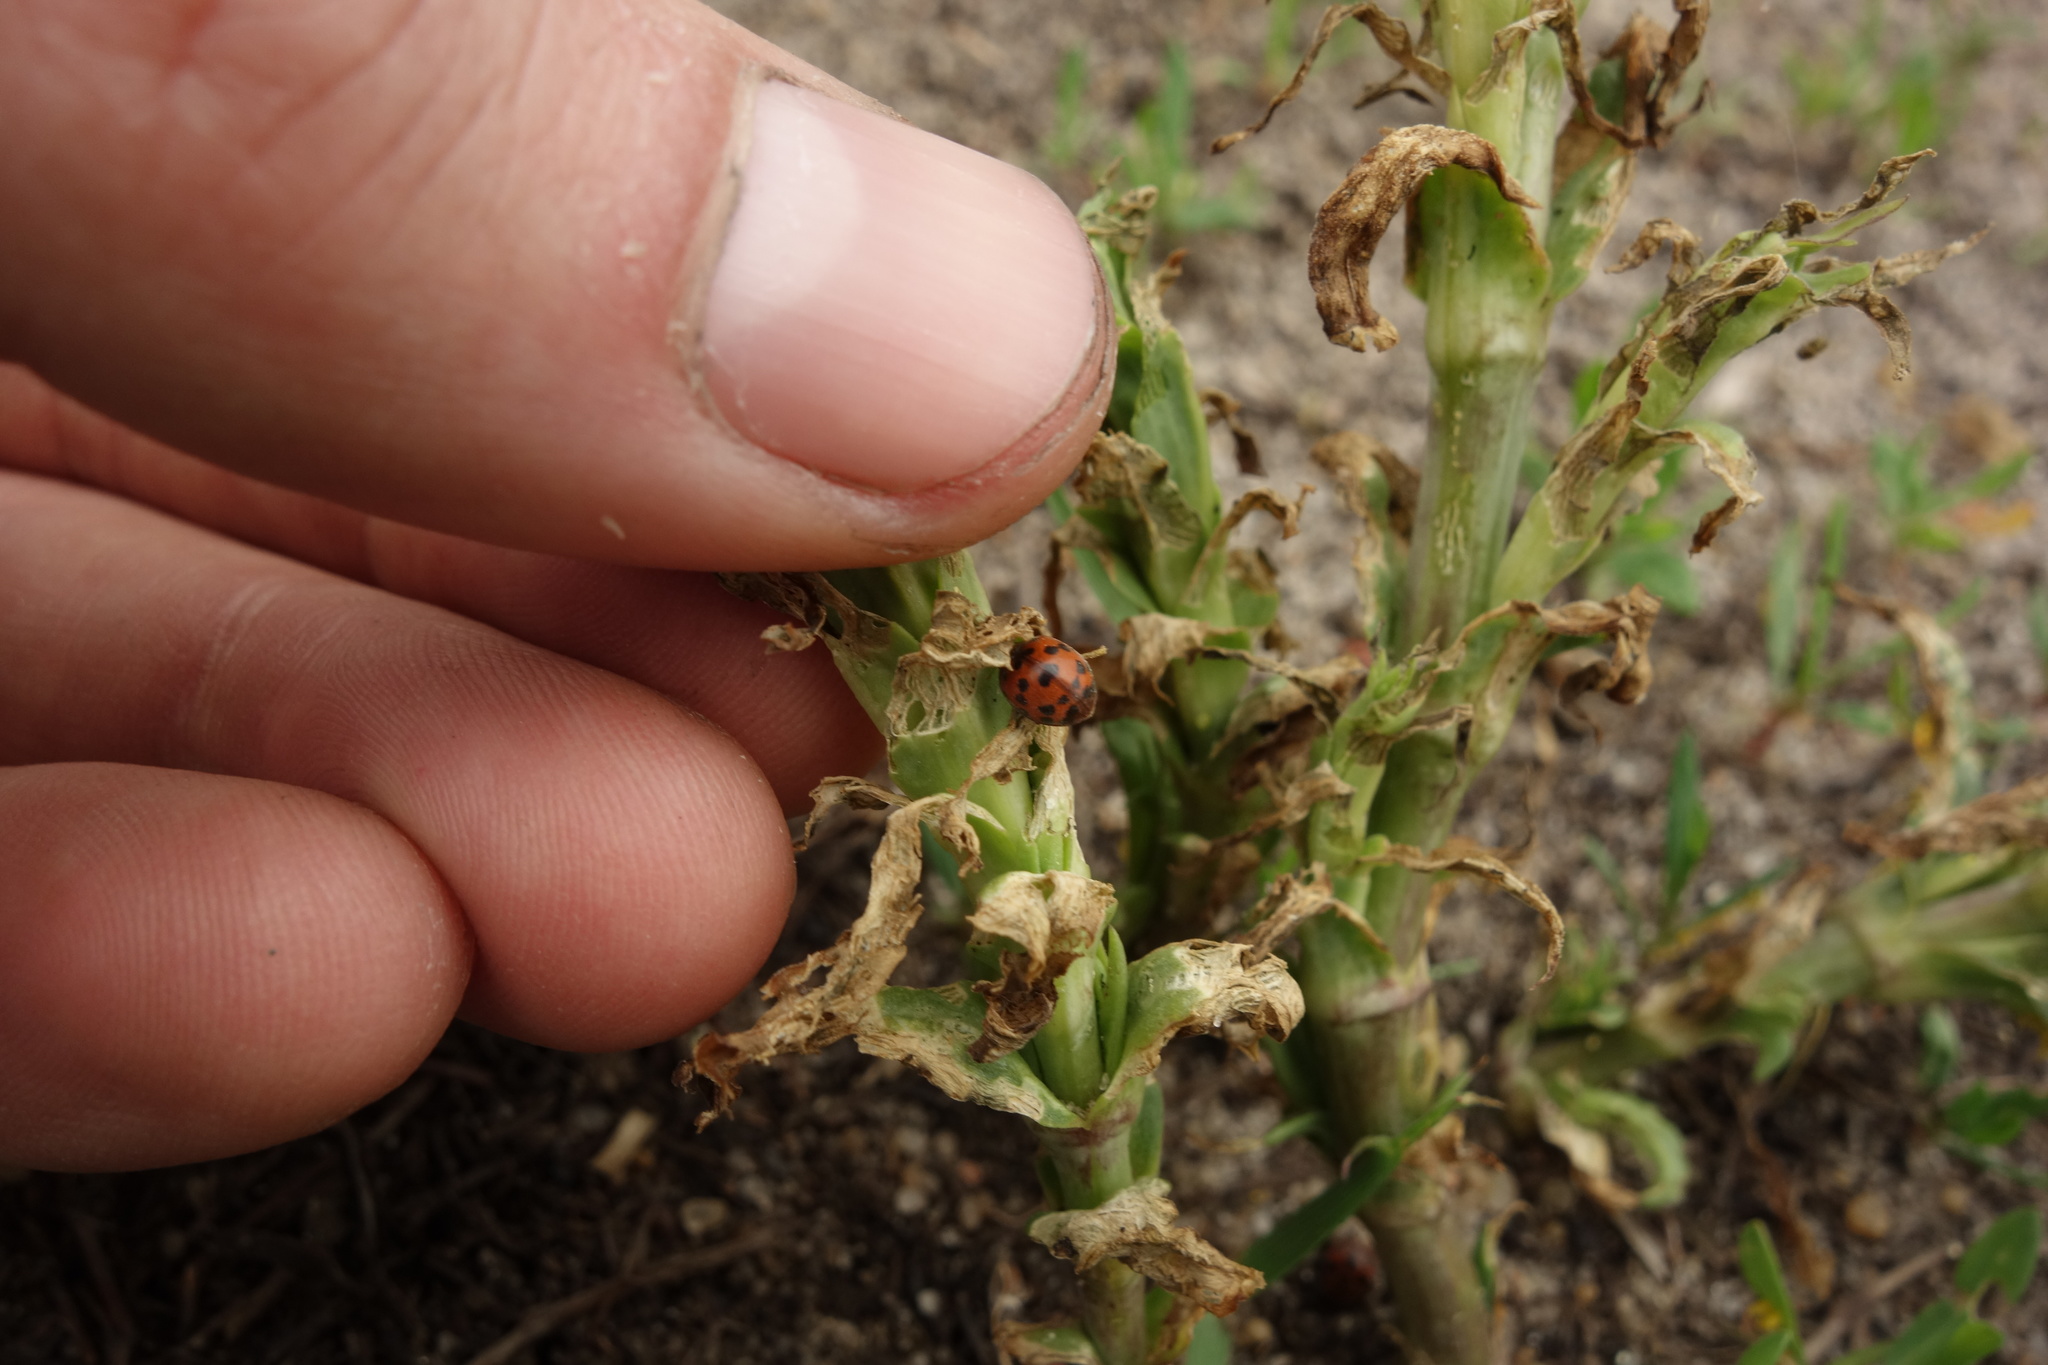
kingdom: Animalia
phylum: Arthropoda
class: Insecta
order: Coleoptera
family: Coccinellidae
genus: Subcoccinella
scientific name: Subcoccinella vigintiquatuorpunctata
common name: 24-spot ladybird
